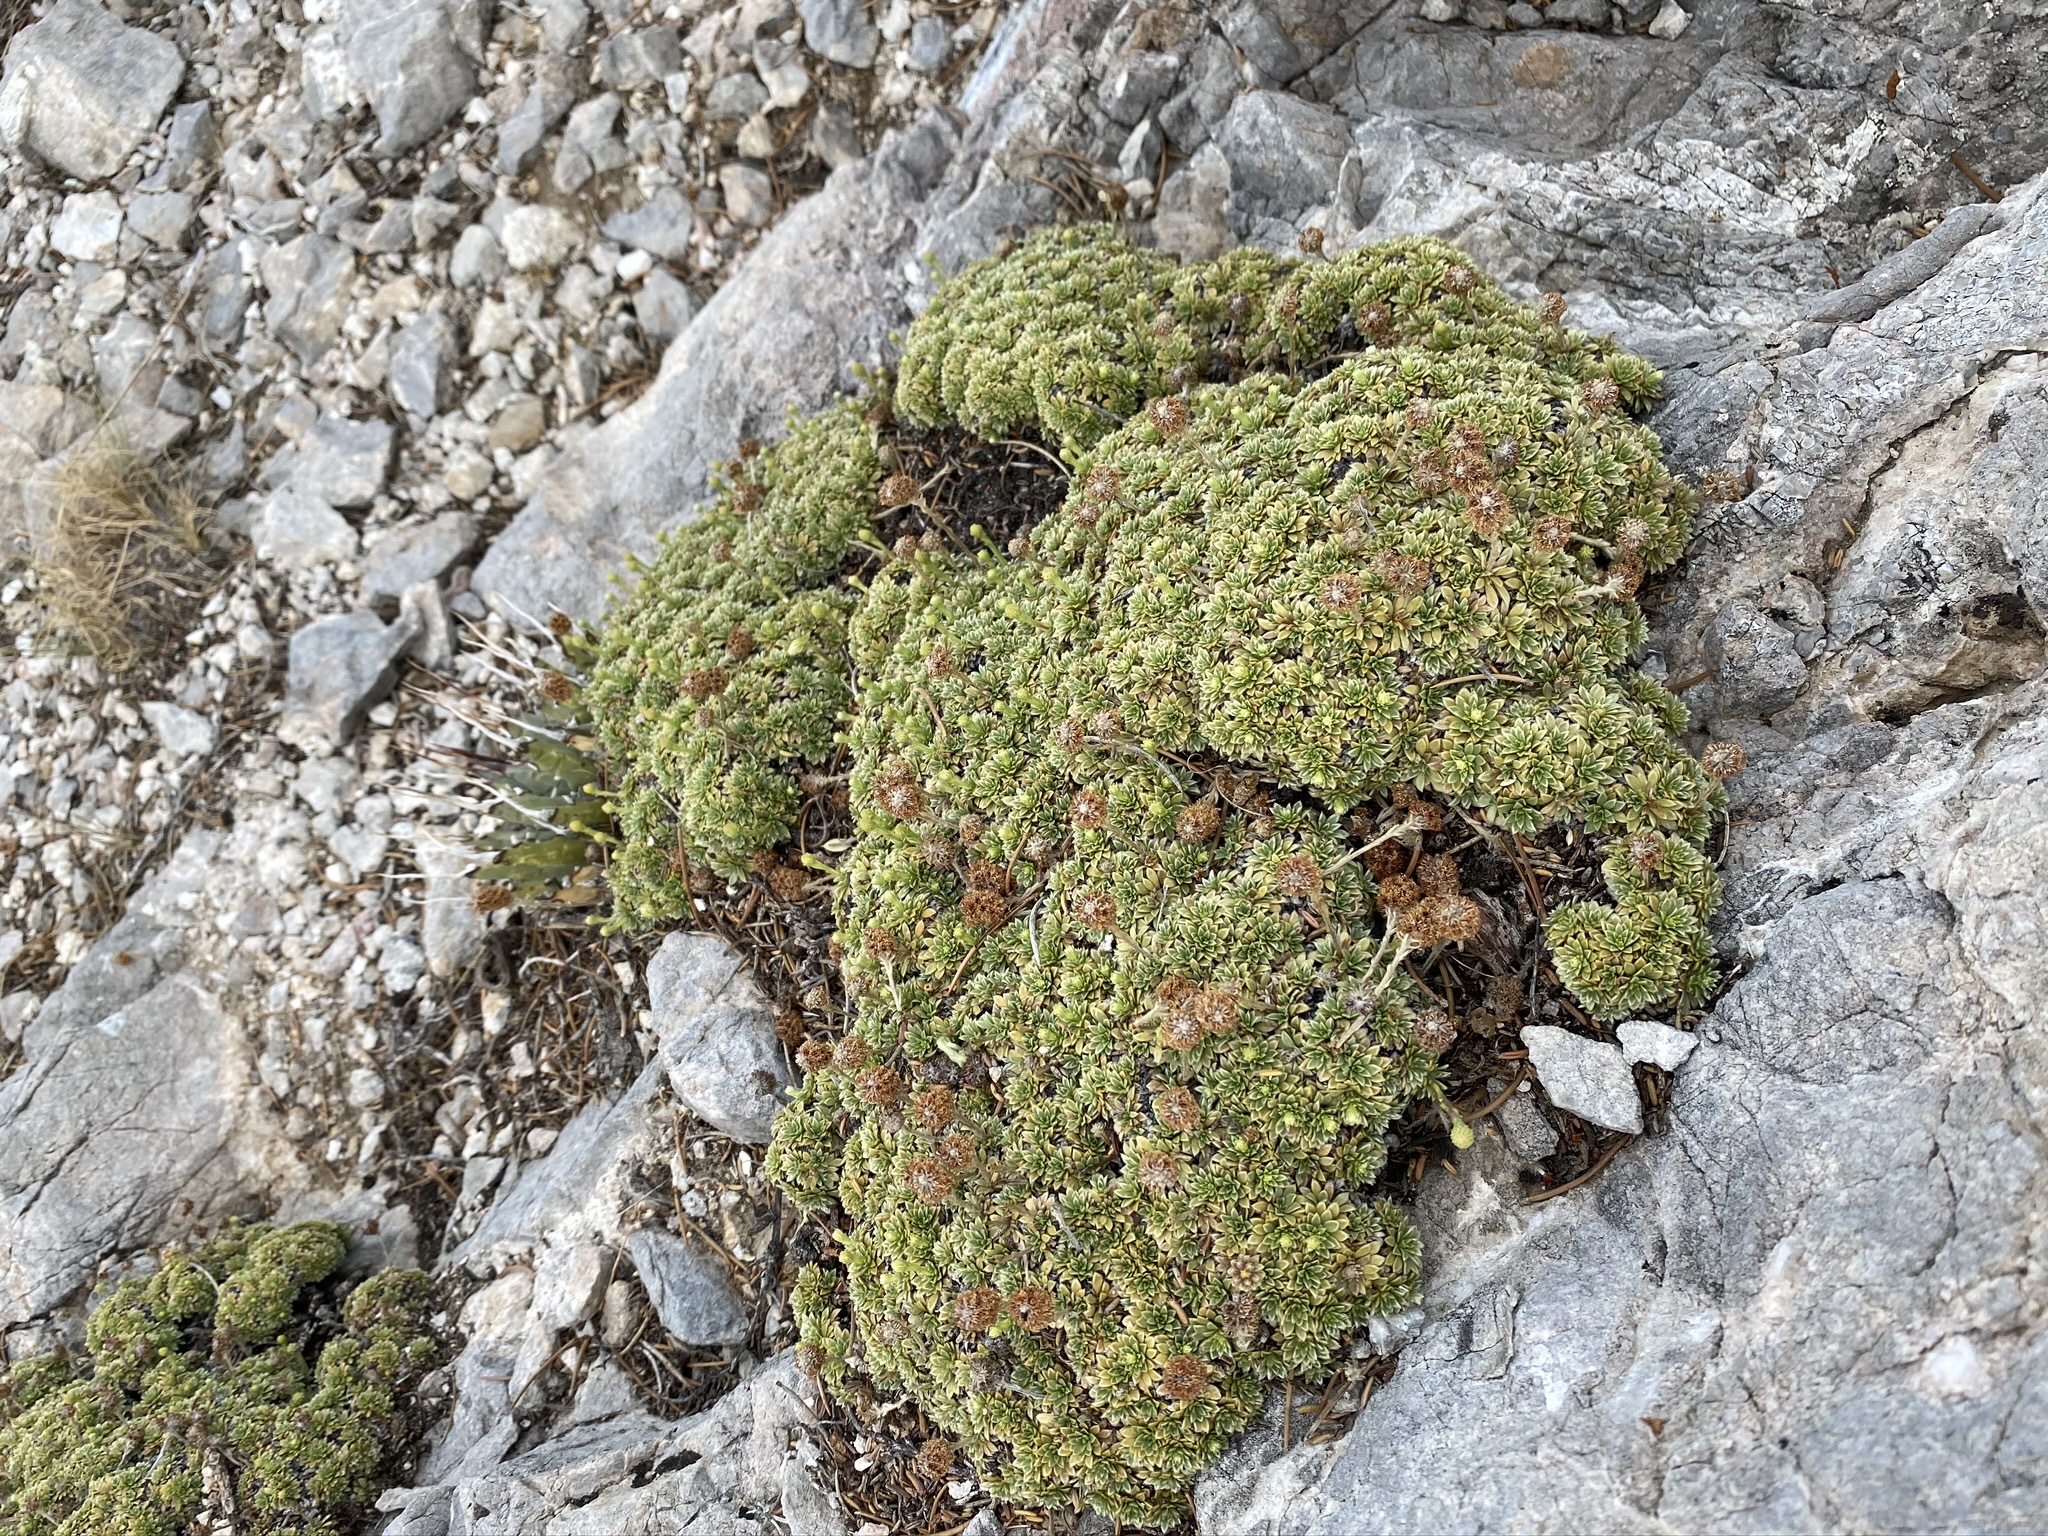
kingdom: Plantae
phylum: Tracheophyta
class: Magnoliopsida
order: Rosales
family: Rosaceae
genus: Petrophytum
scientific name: Petrophytum caespitosum
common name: Mat rockspirea
